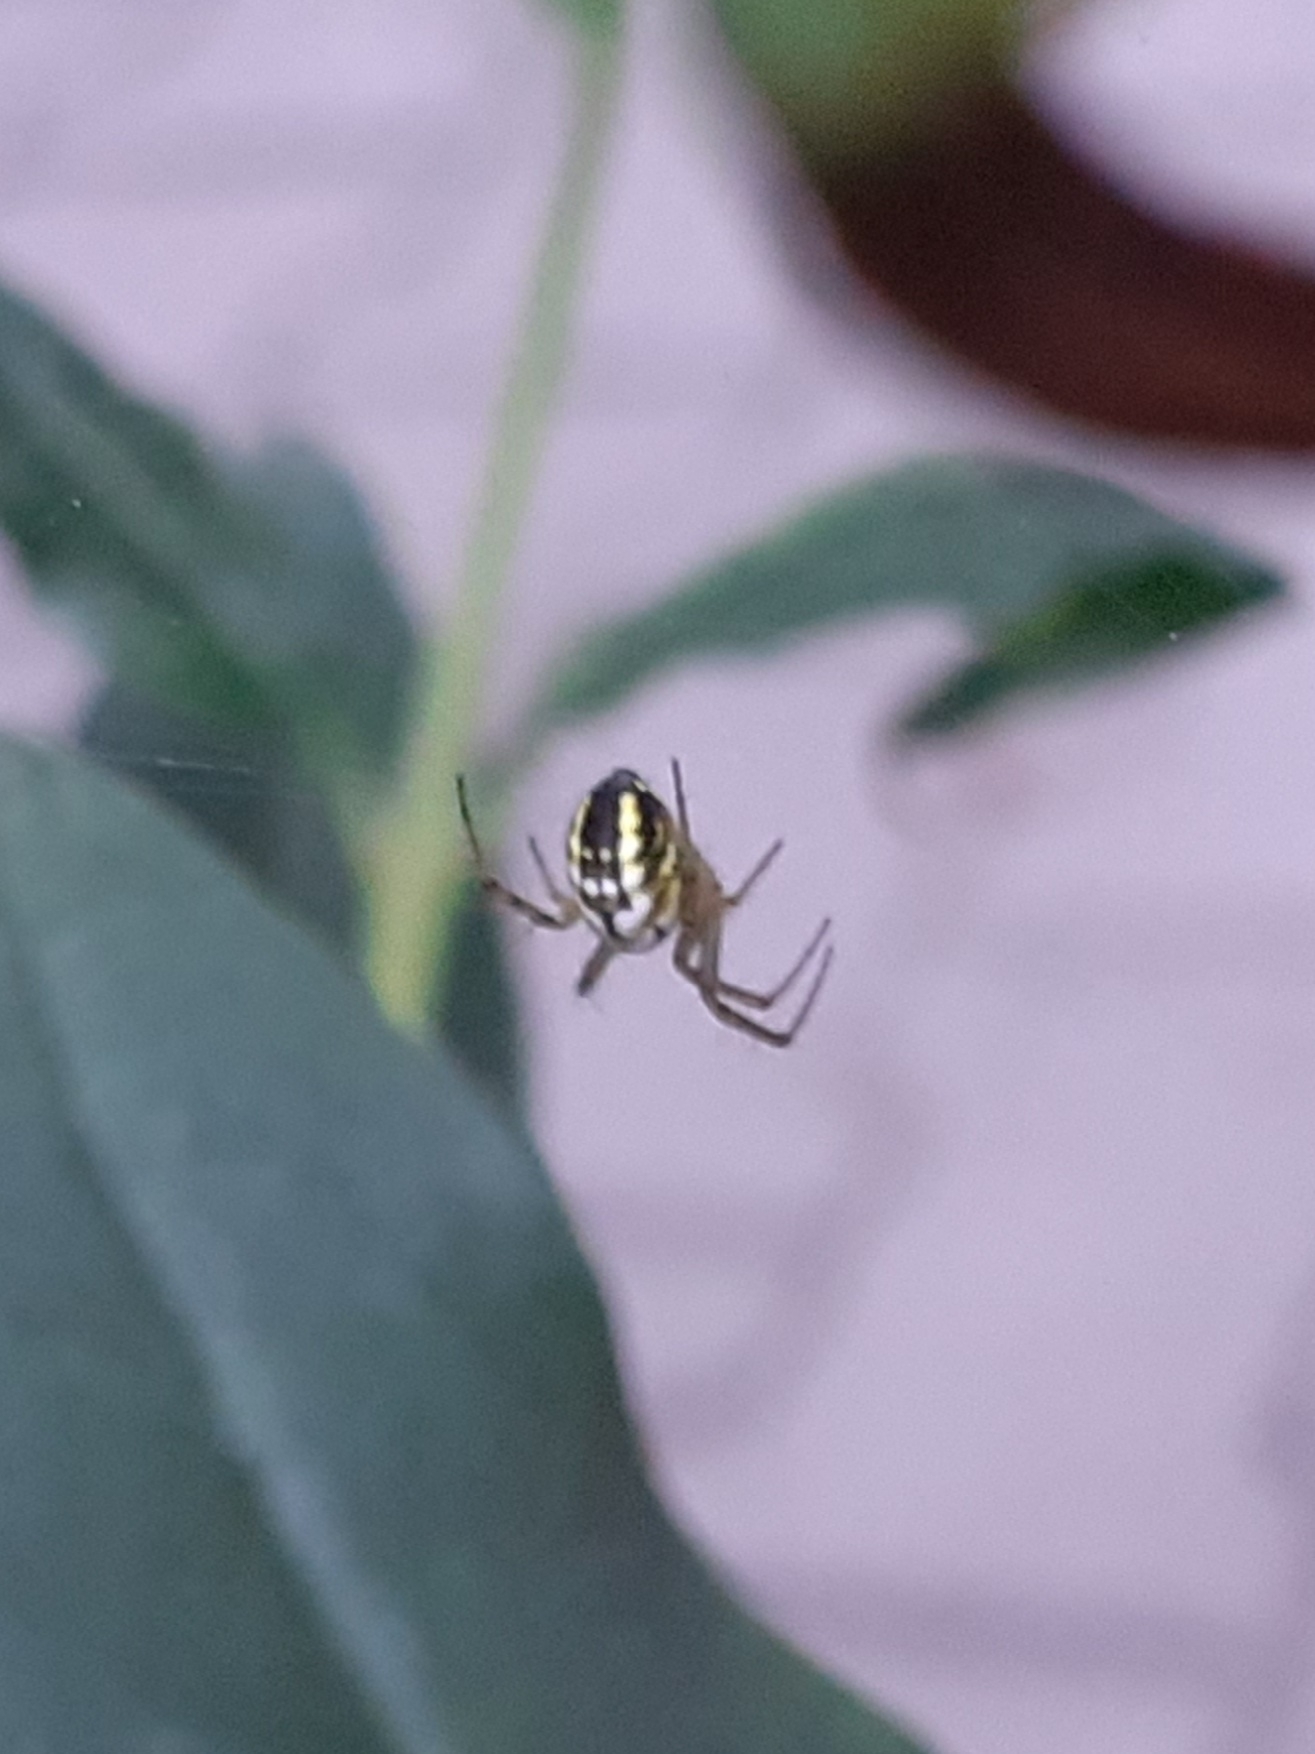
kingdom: Animalia
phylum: Arthropoda
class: Arachnida
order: Araneae
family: Araneidae
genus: Mangora
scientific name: Mangora acalypha
